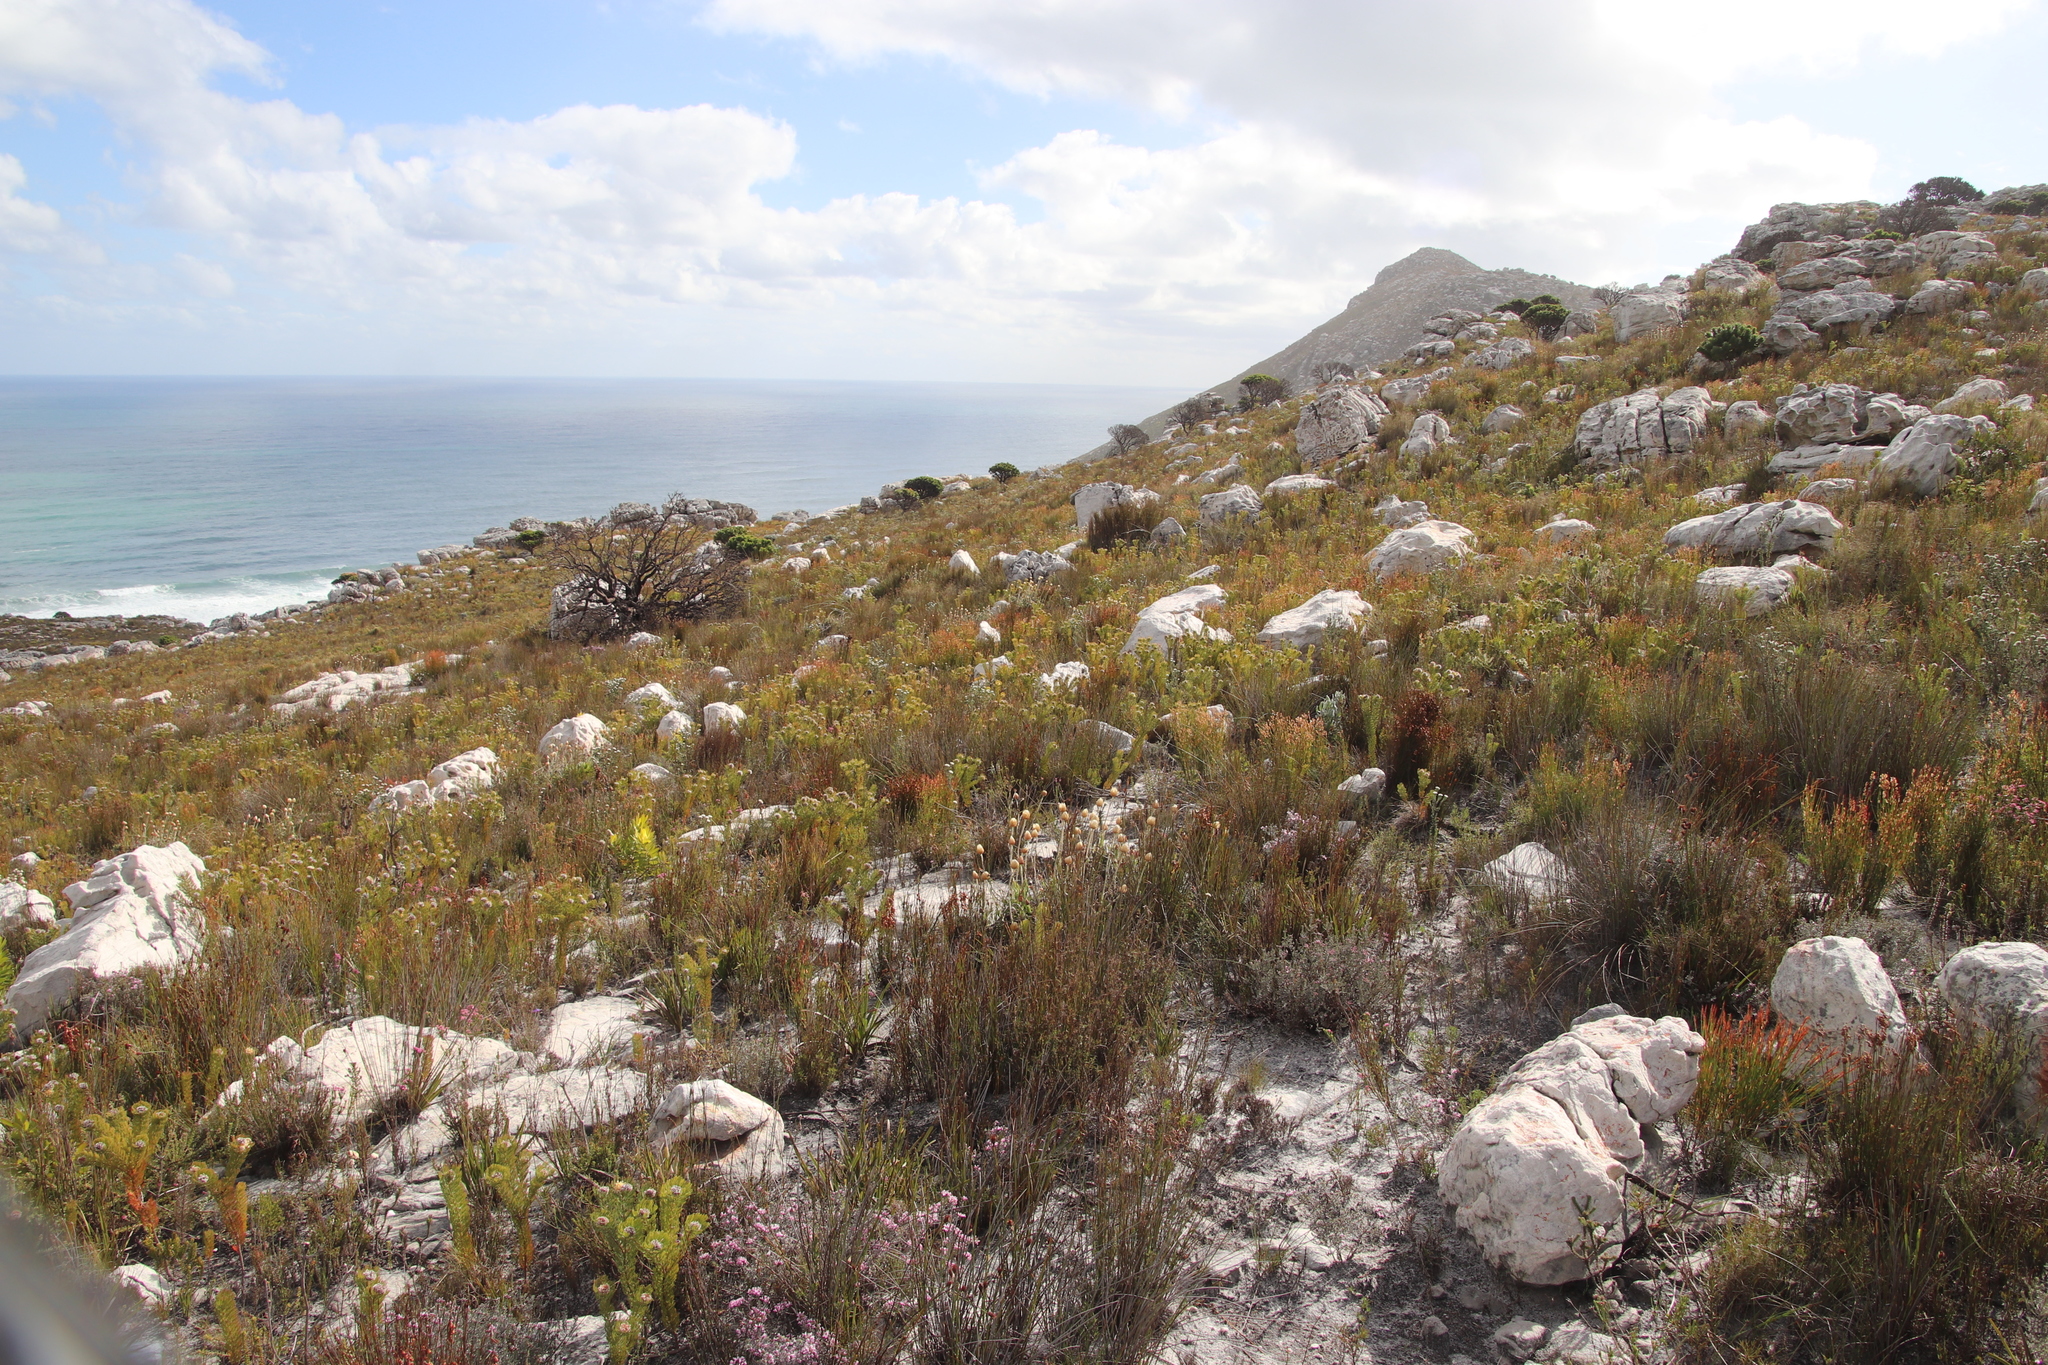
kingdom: Plantae
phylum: Tracheophyta
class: Magnoliopsida
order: Proteales
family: Proteaceae
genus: Serruria
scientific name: Serruria villosa
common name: Golden spiderhead
